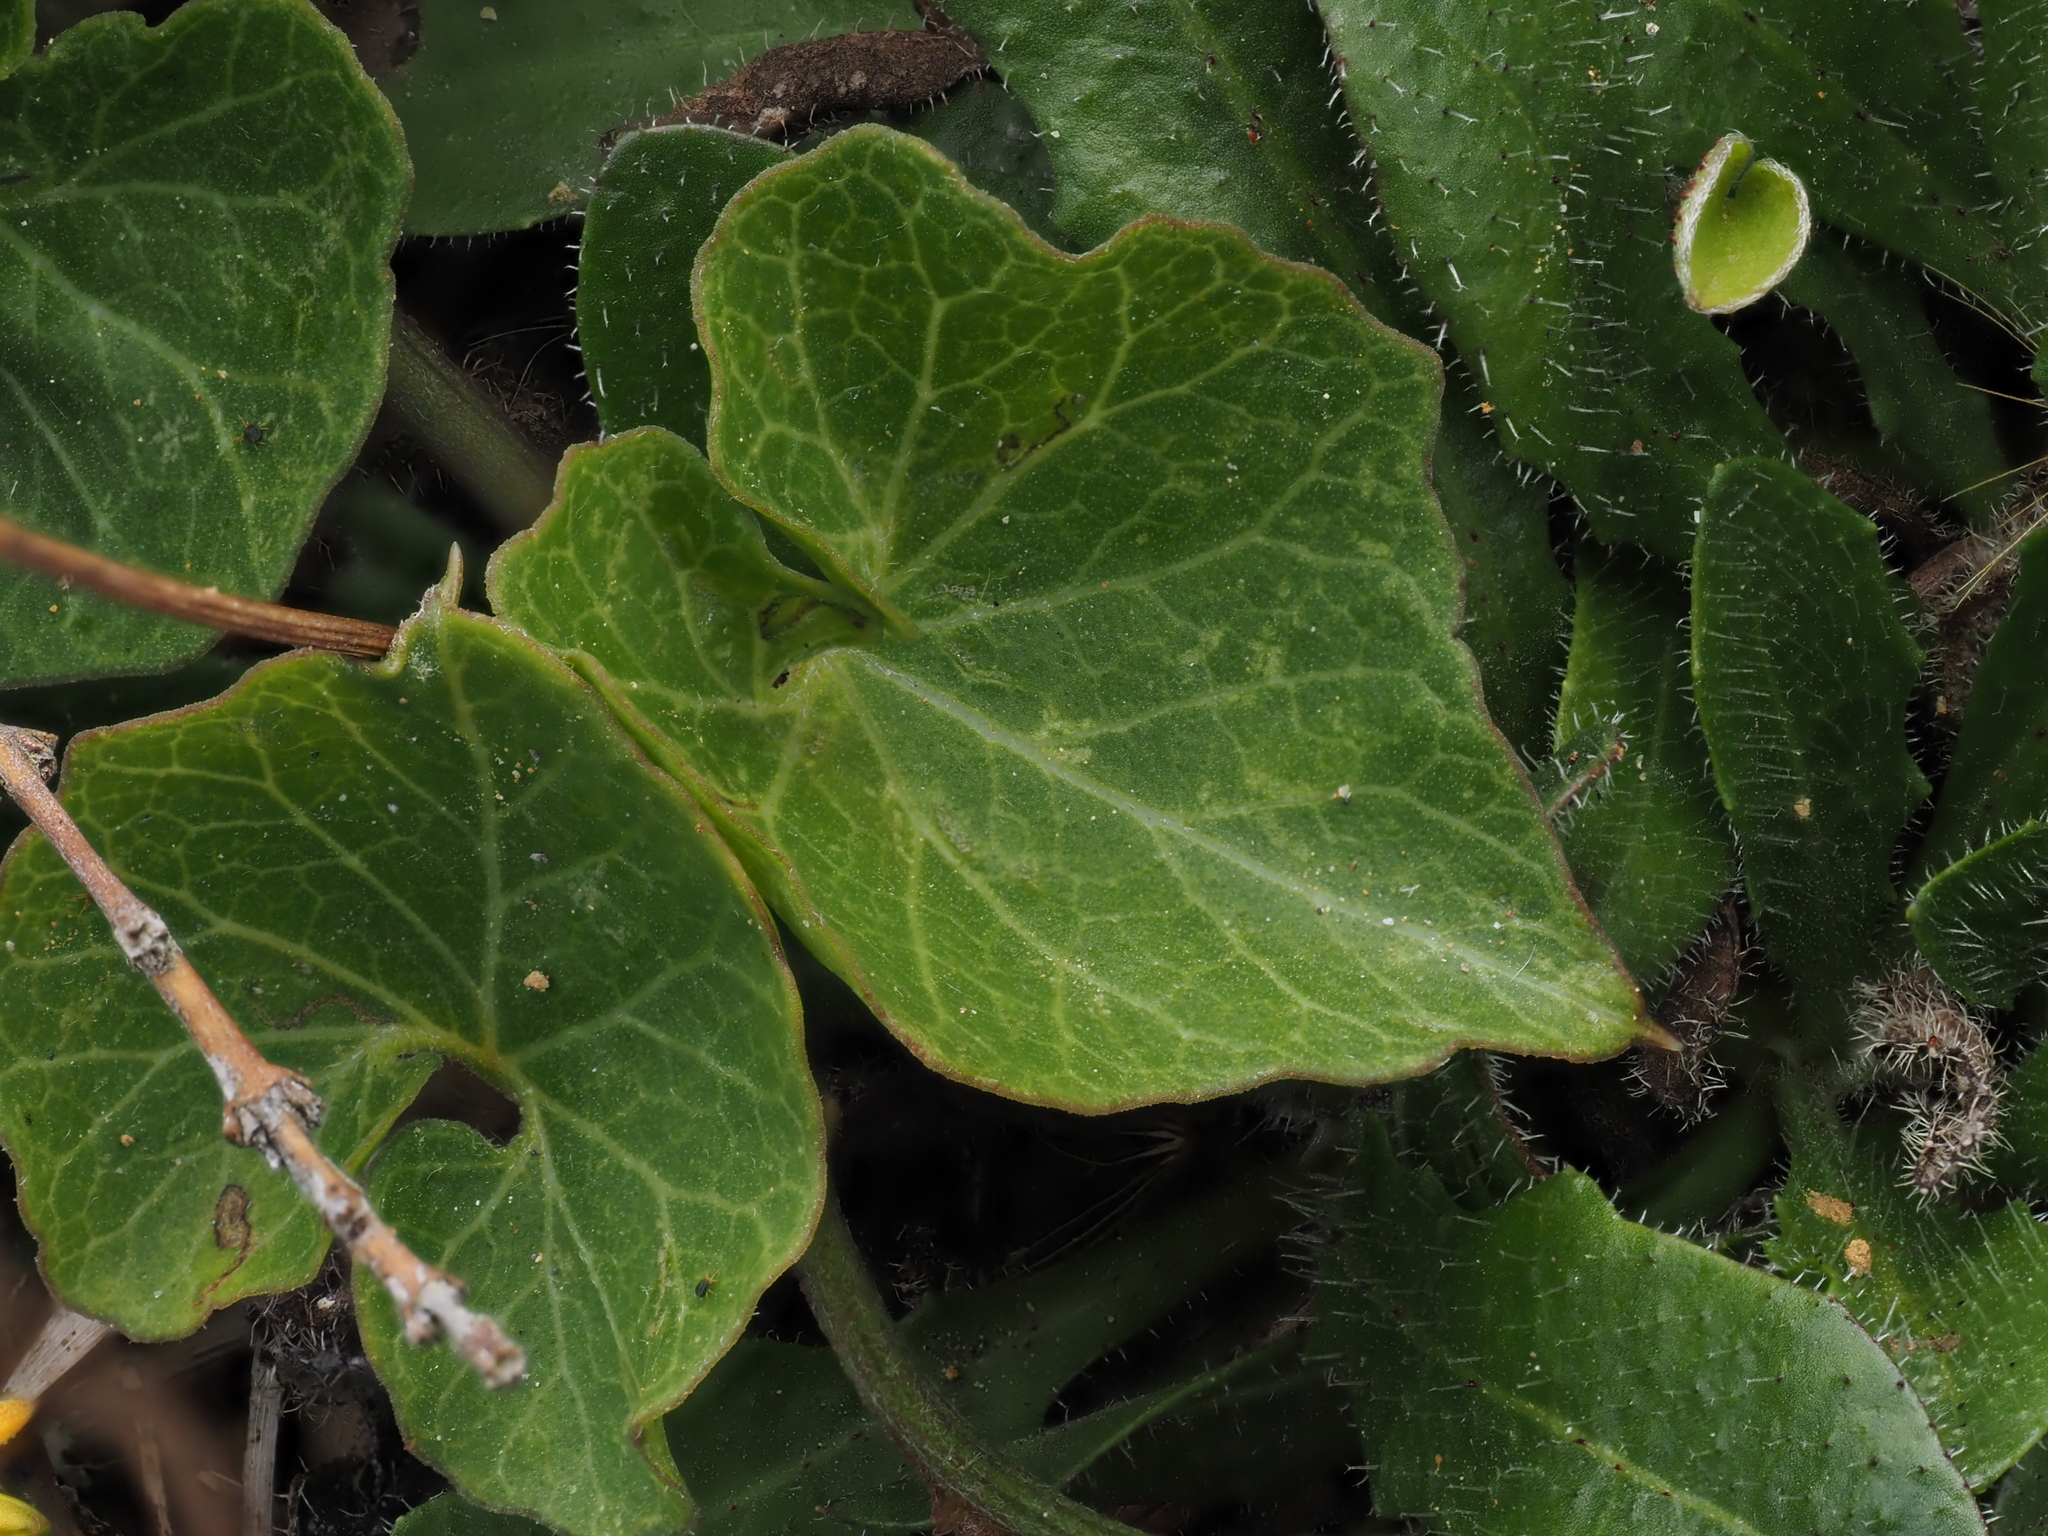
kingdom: Plantae
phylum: Tracheophyta
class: Magnoliopsida
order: Solanales
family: Convolvulaceae
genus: Calystegia
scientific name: Calystegia soldanella
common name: Sea bindweed
